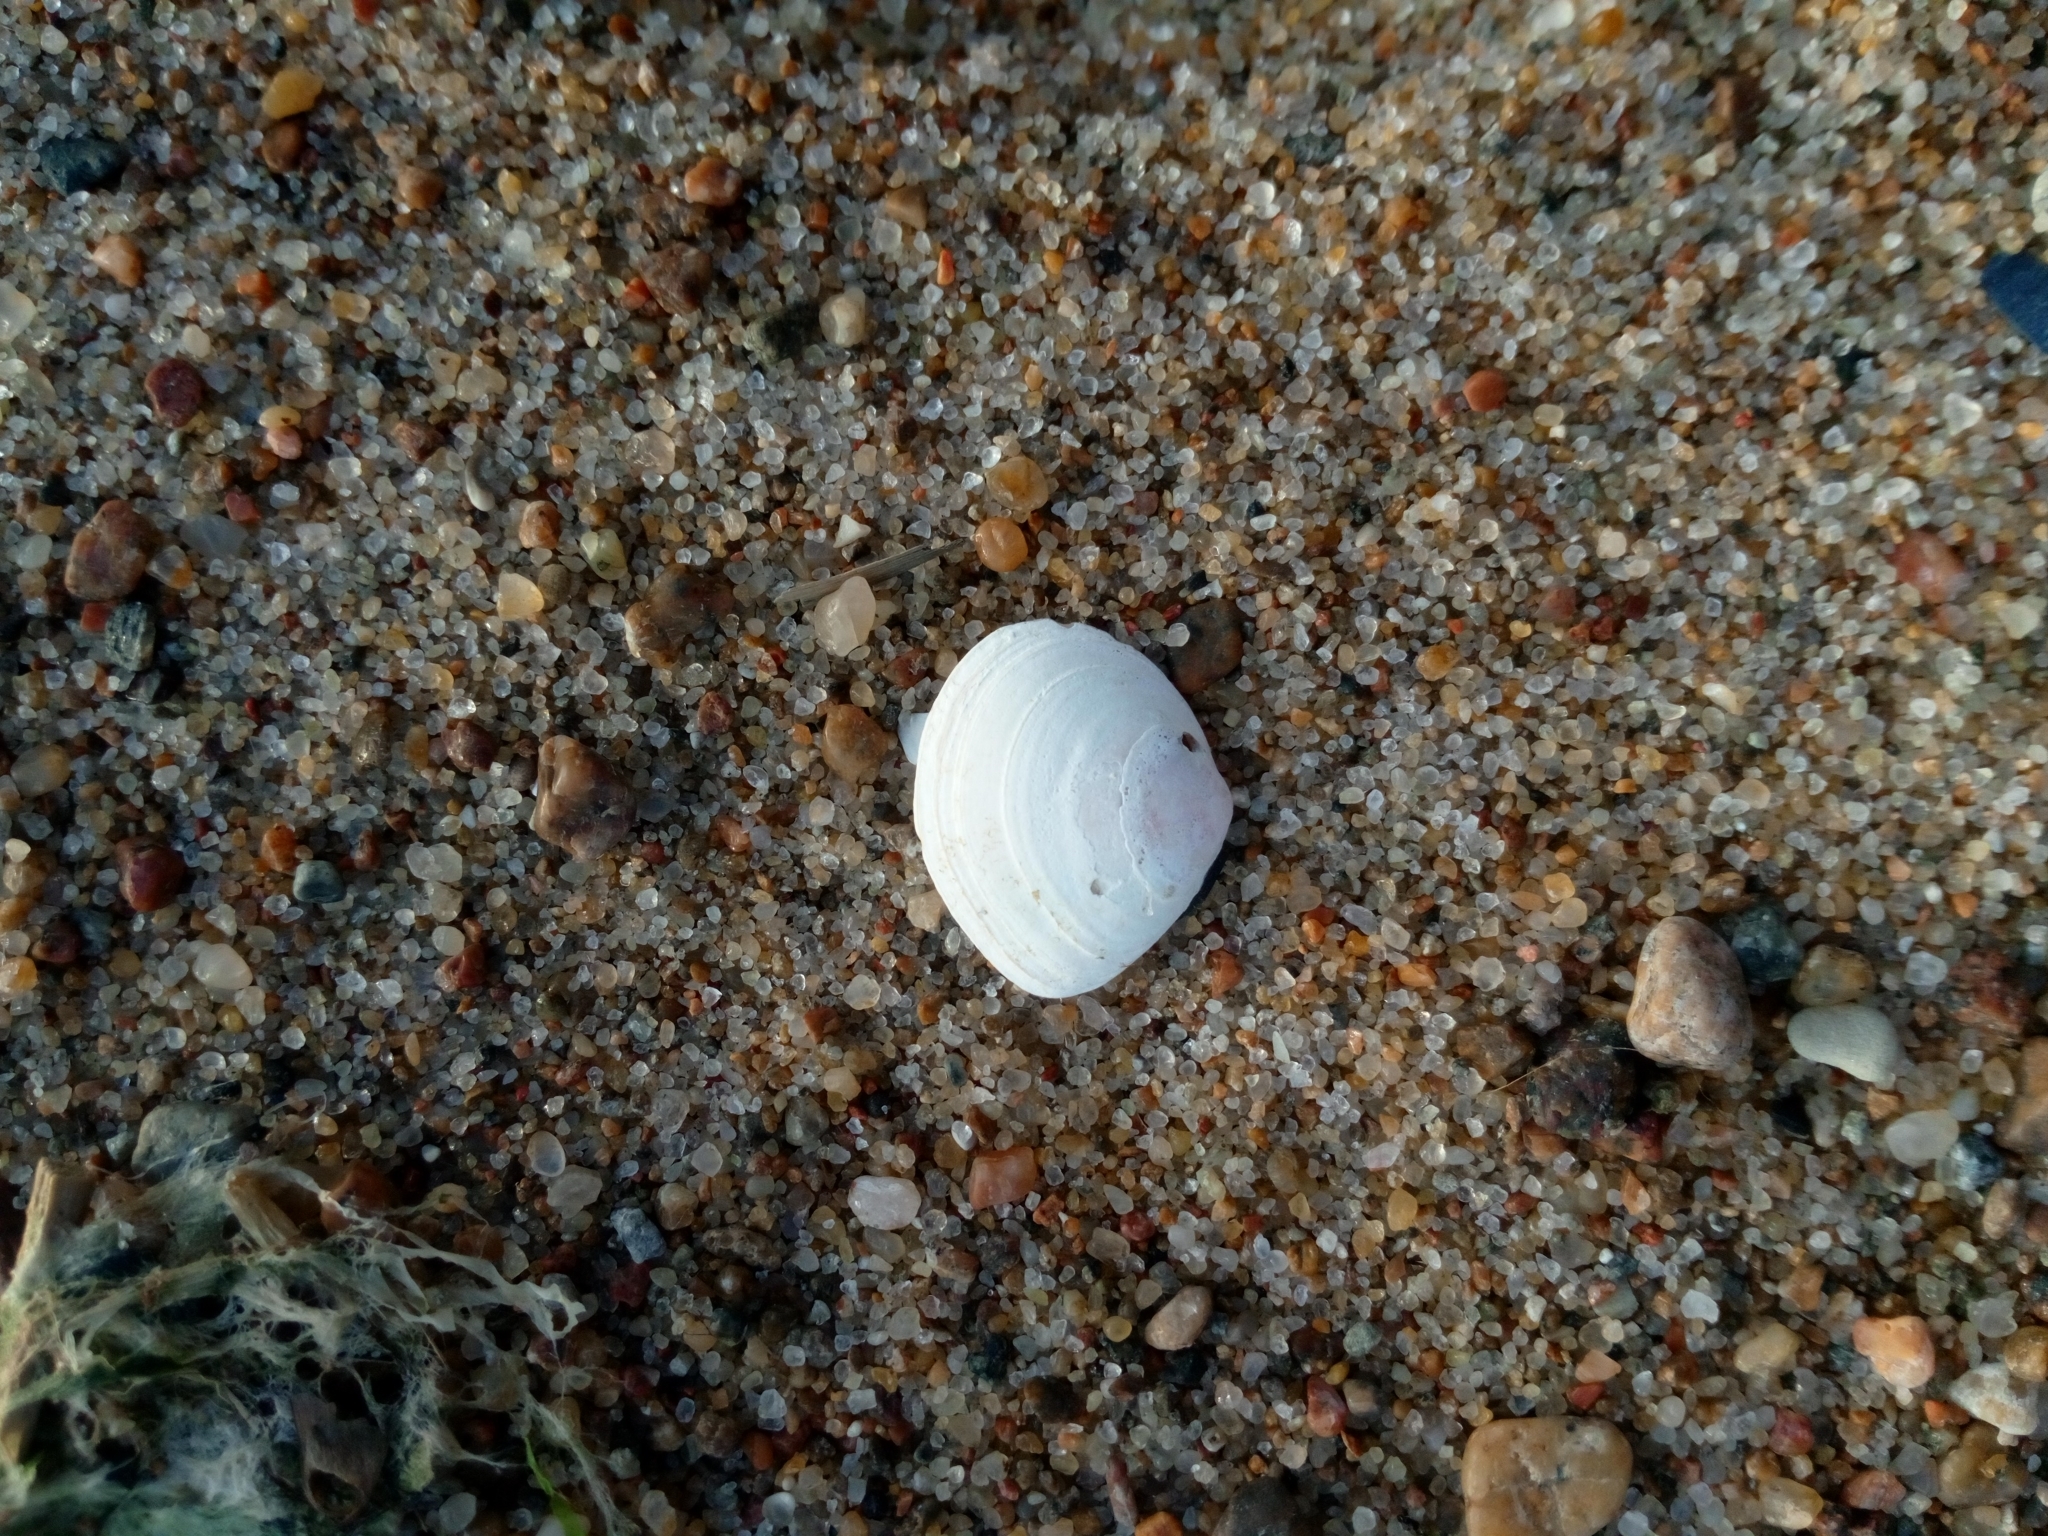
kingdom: Animalia
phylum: Mollusca
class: Bivalvia
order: Cardiida
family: Tellinidae
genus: Macoma
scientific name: Macoma balthica
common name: Baltic tellin
